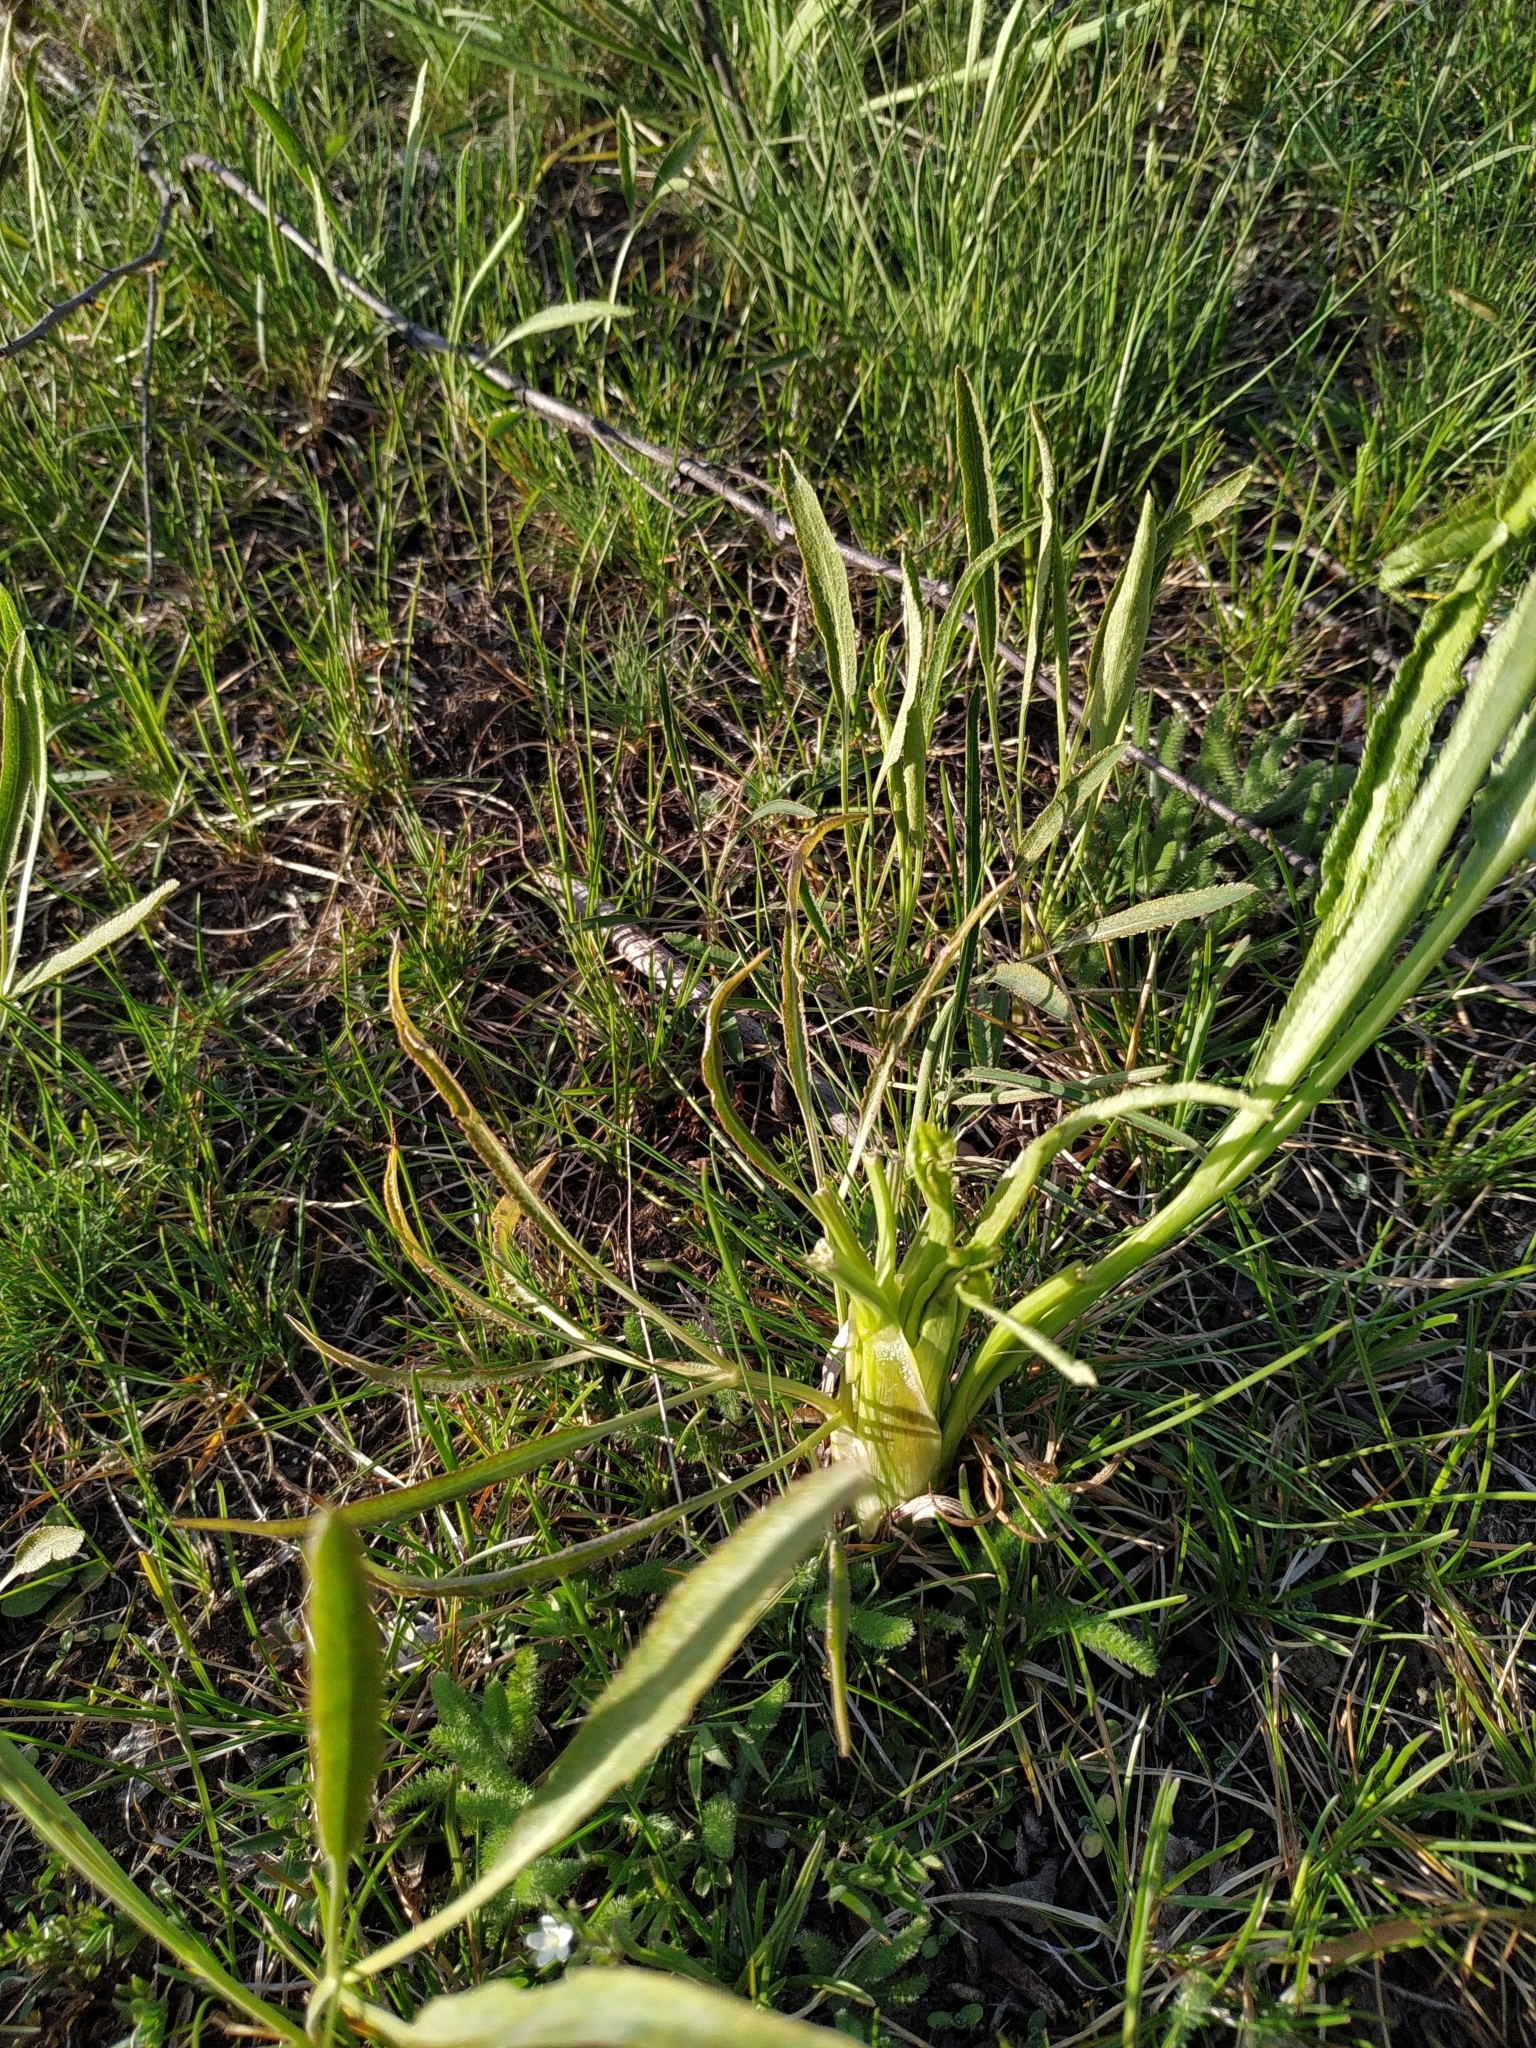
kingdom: Plantae
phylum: Tracheophyta
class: Magnoliopsida
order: Apiales
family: Apiaceae
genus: Falcaria
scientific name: Falcaria vulgaris
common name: Longleaf
